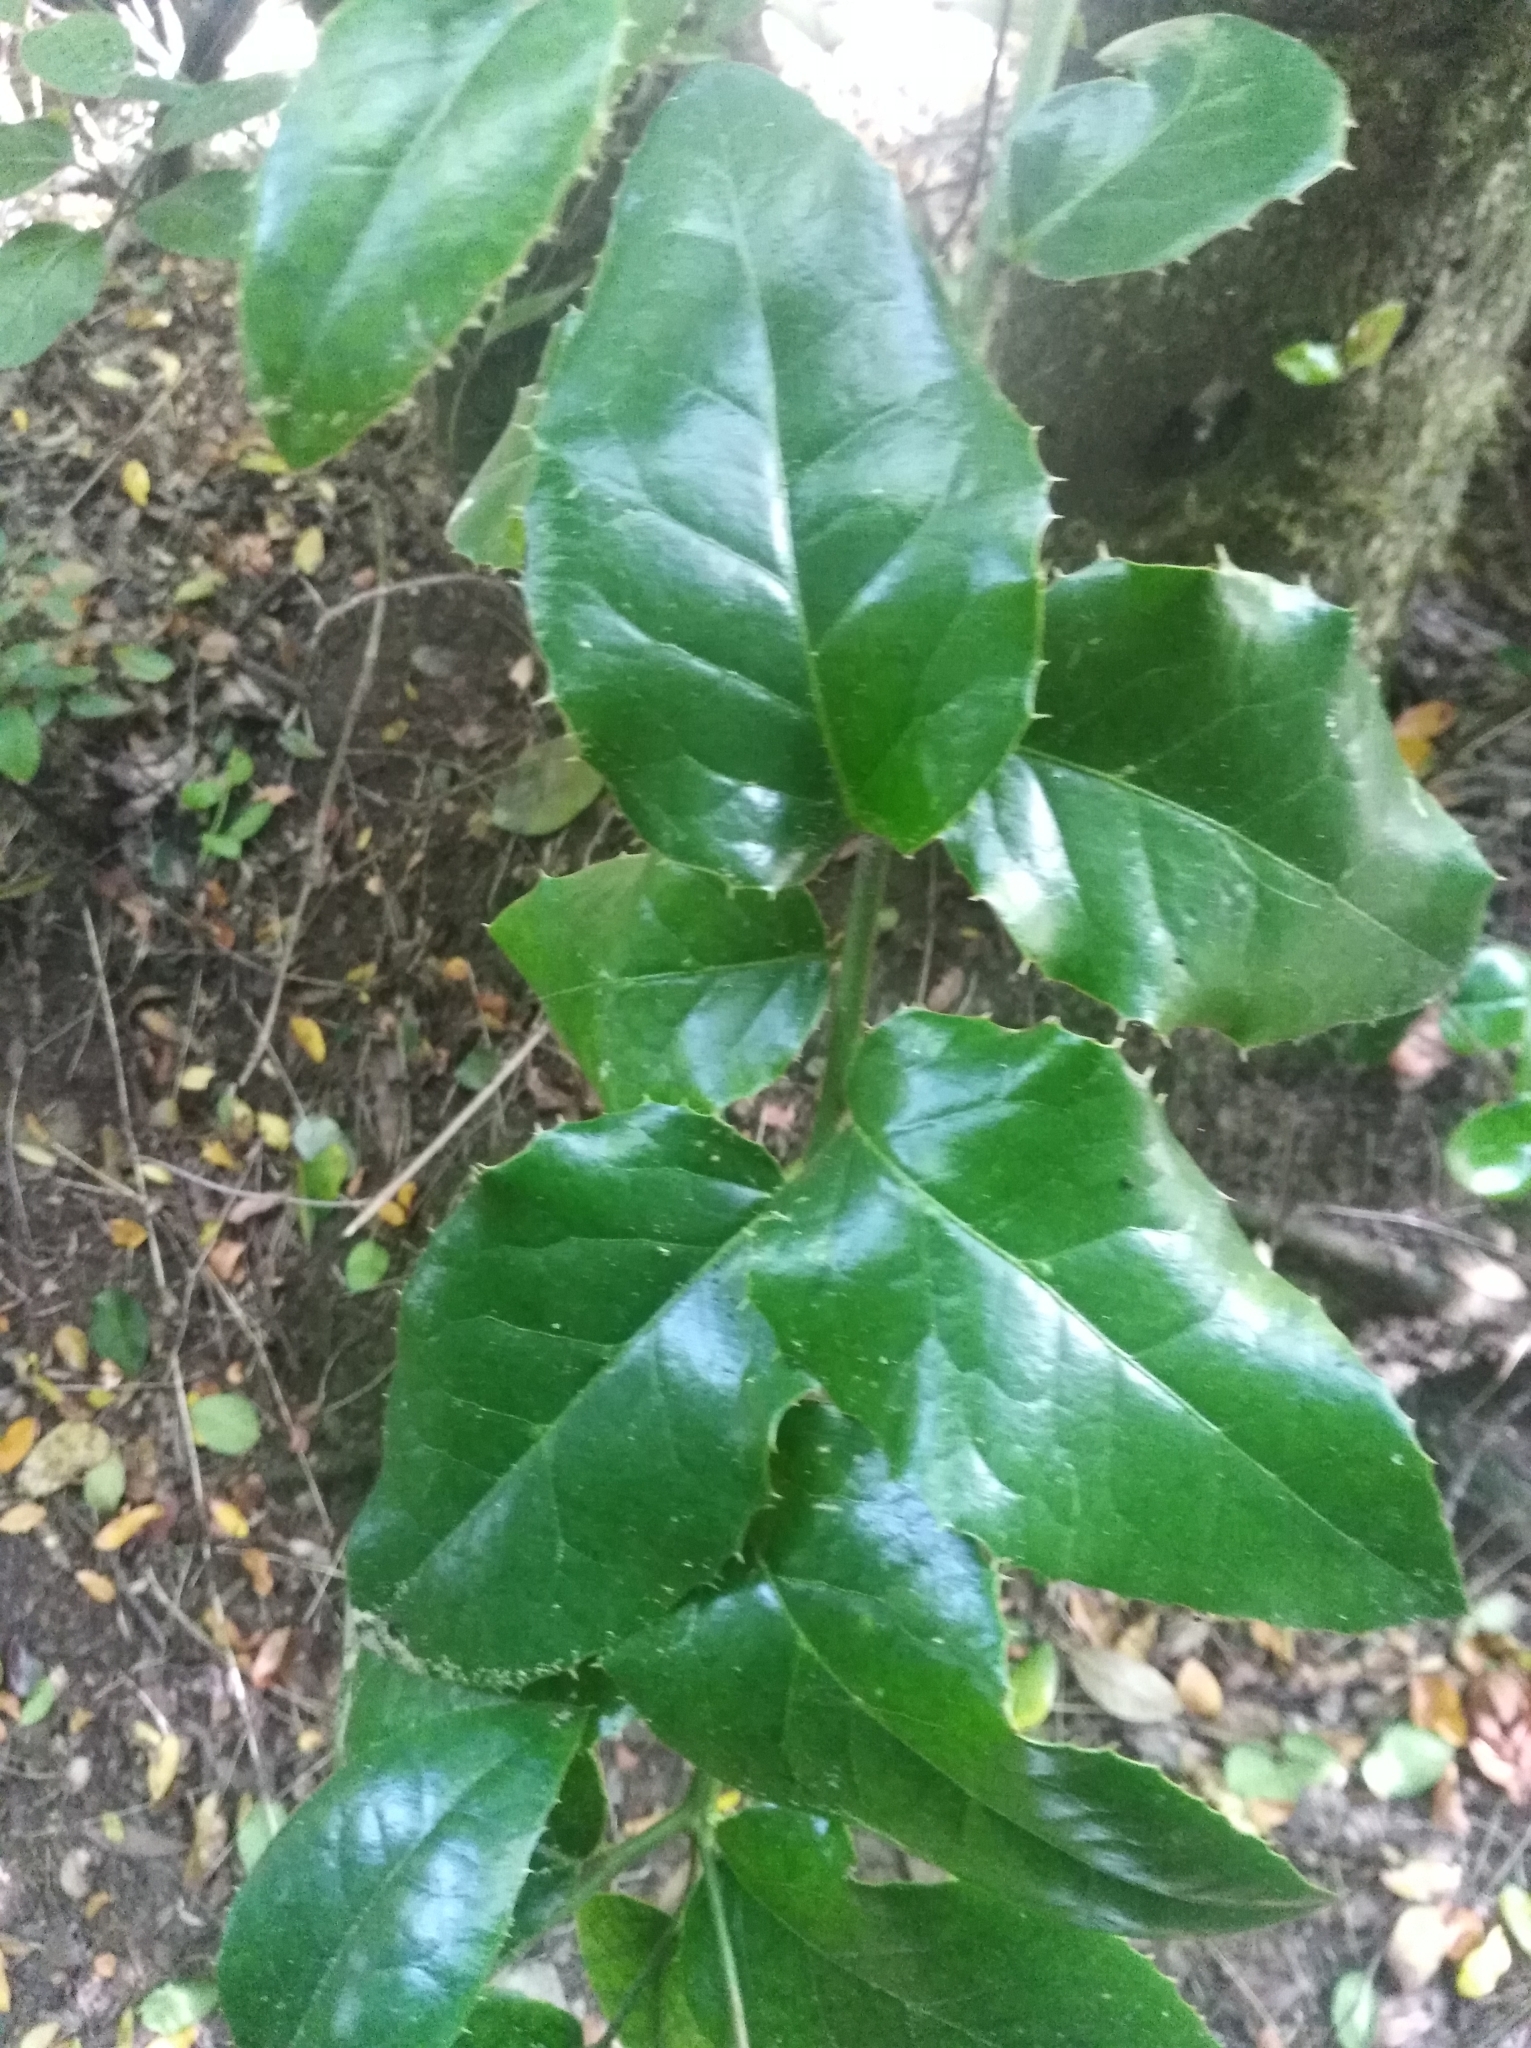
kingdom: Plantae
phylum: Tracheophyta
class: Magnoliopsida
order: Cardiopteridales
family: Cardiopteridaceae
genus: Citronella
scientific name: Citronella mucronata
